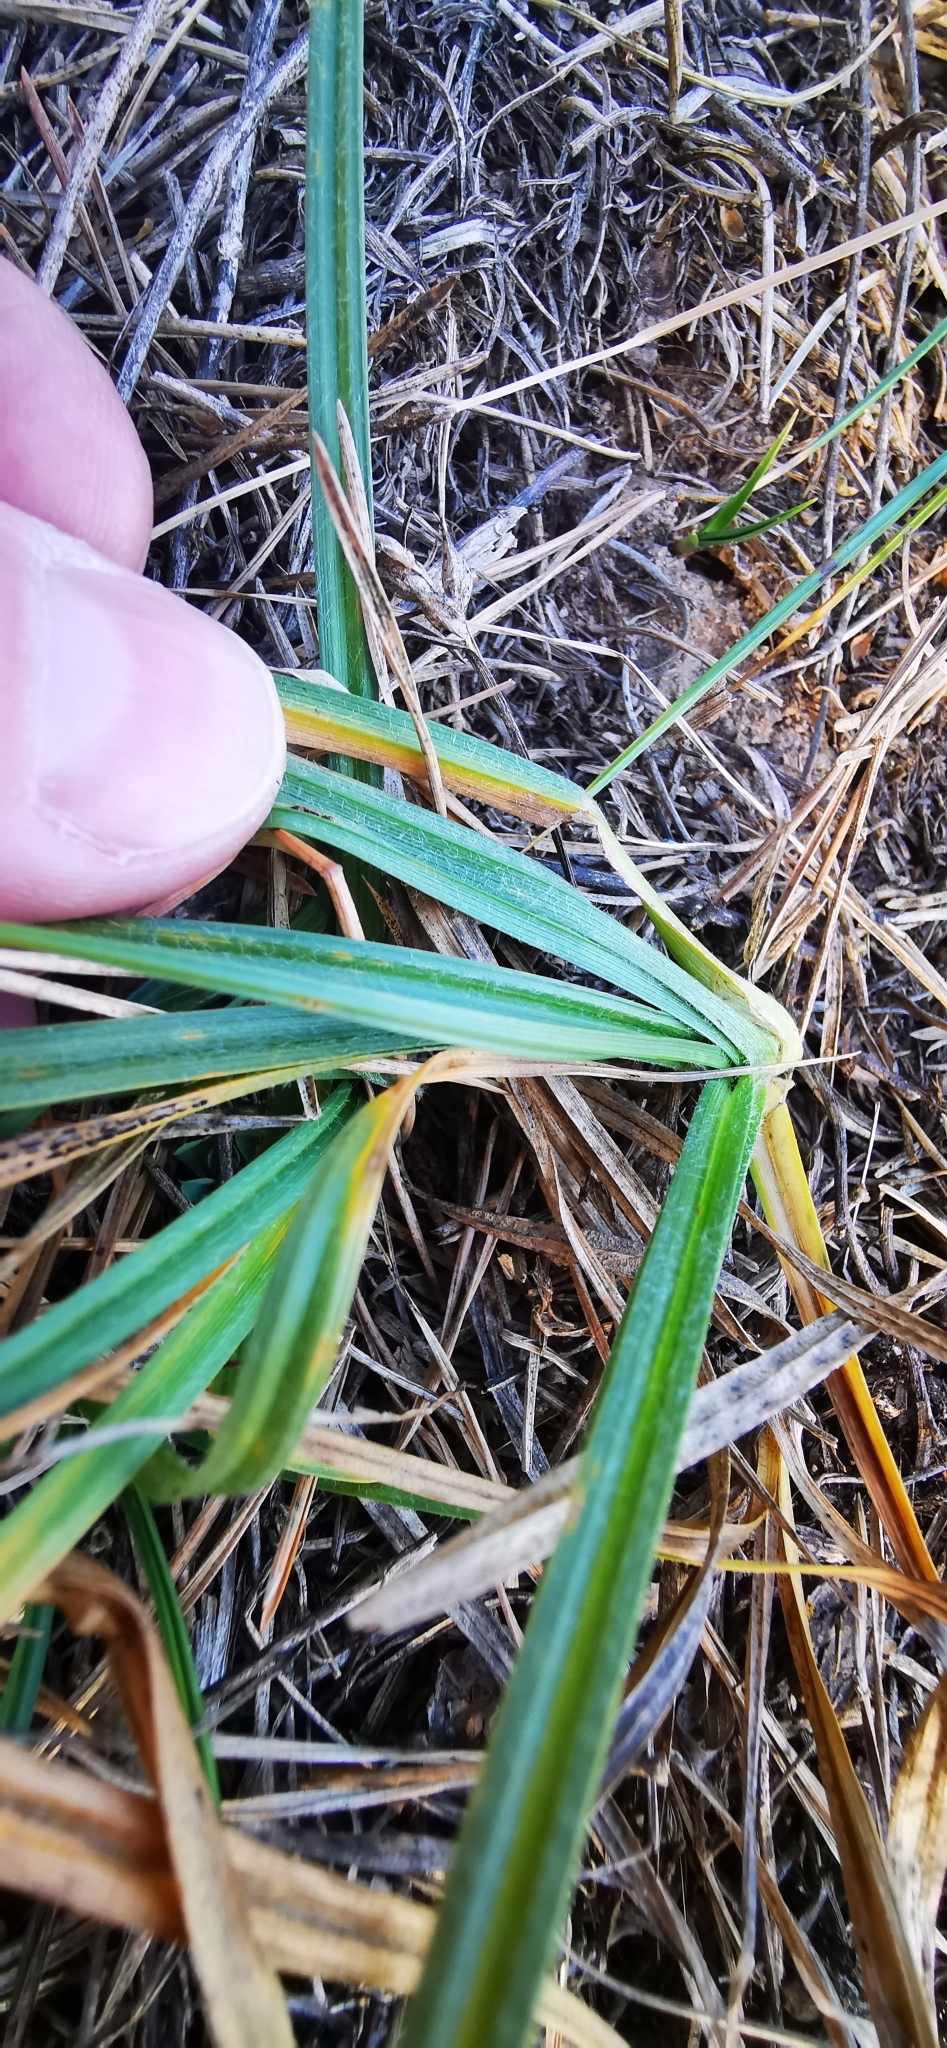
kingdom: Plantae
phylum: Tracheophyta
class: Liliopsida
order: Poales
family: Cyperaceae
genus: Carex
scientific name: Carex hirta
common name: Hairy sedge
